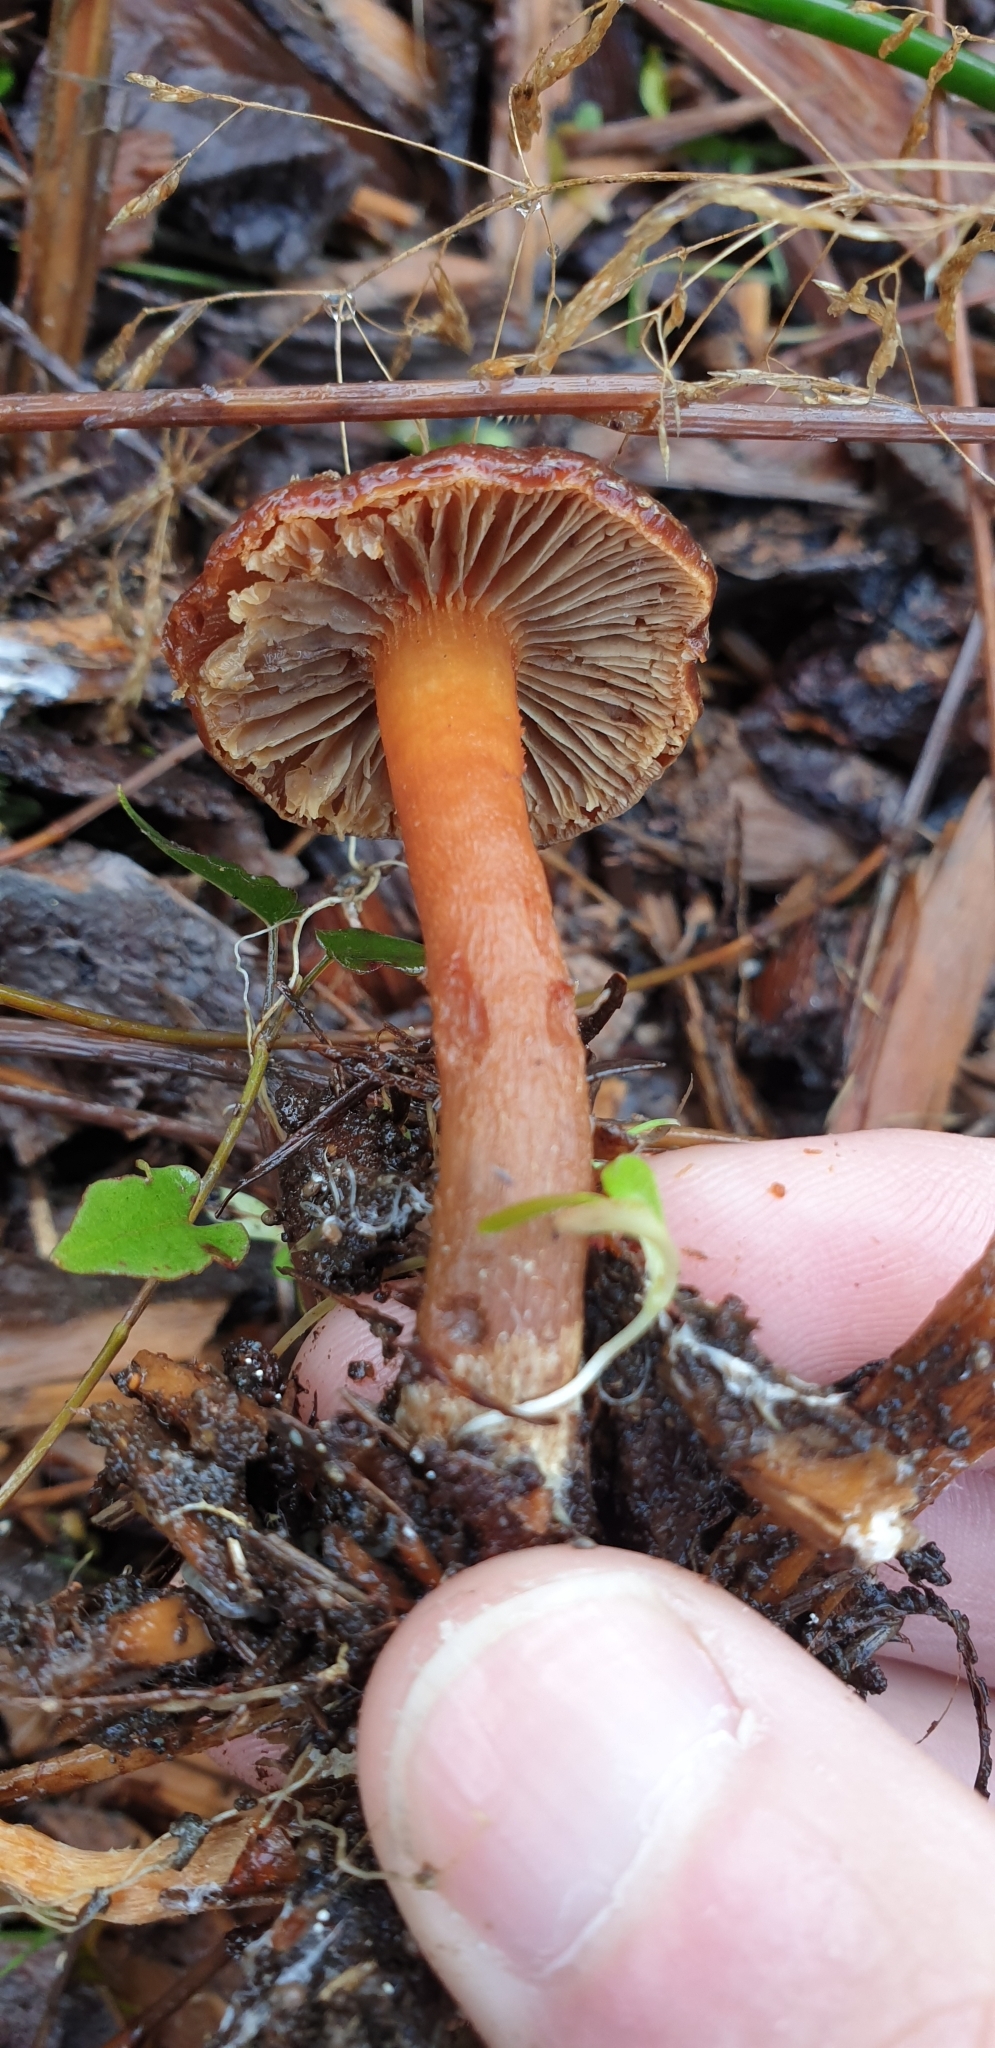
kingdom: Fungi
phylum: Basidiomycota
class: Agaricomycetes
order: Agaricales
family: Strophariaceae
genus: Hypholoma
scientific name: Hypholoma brunneum
